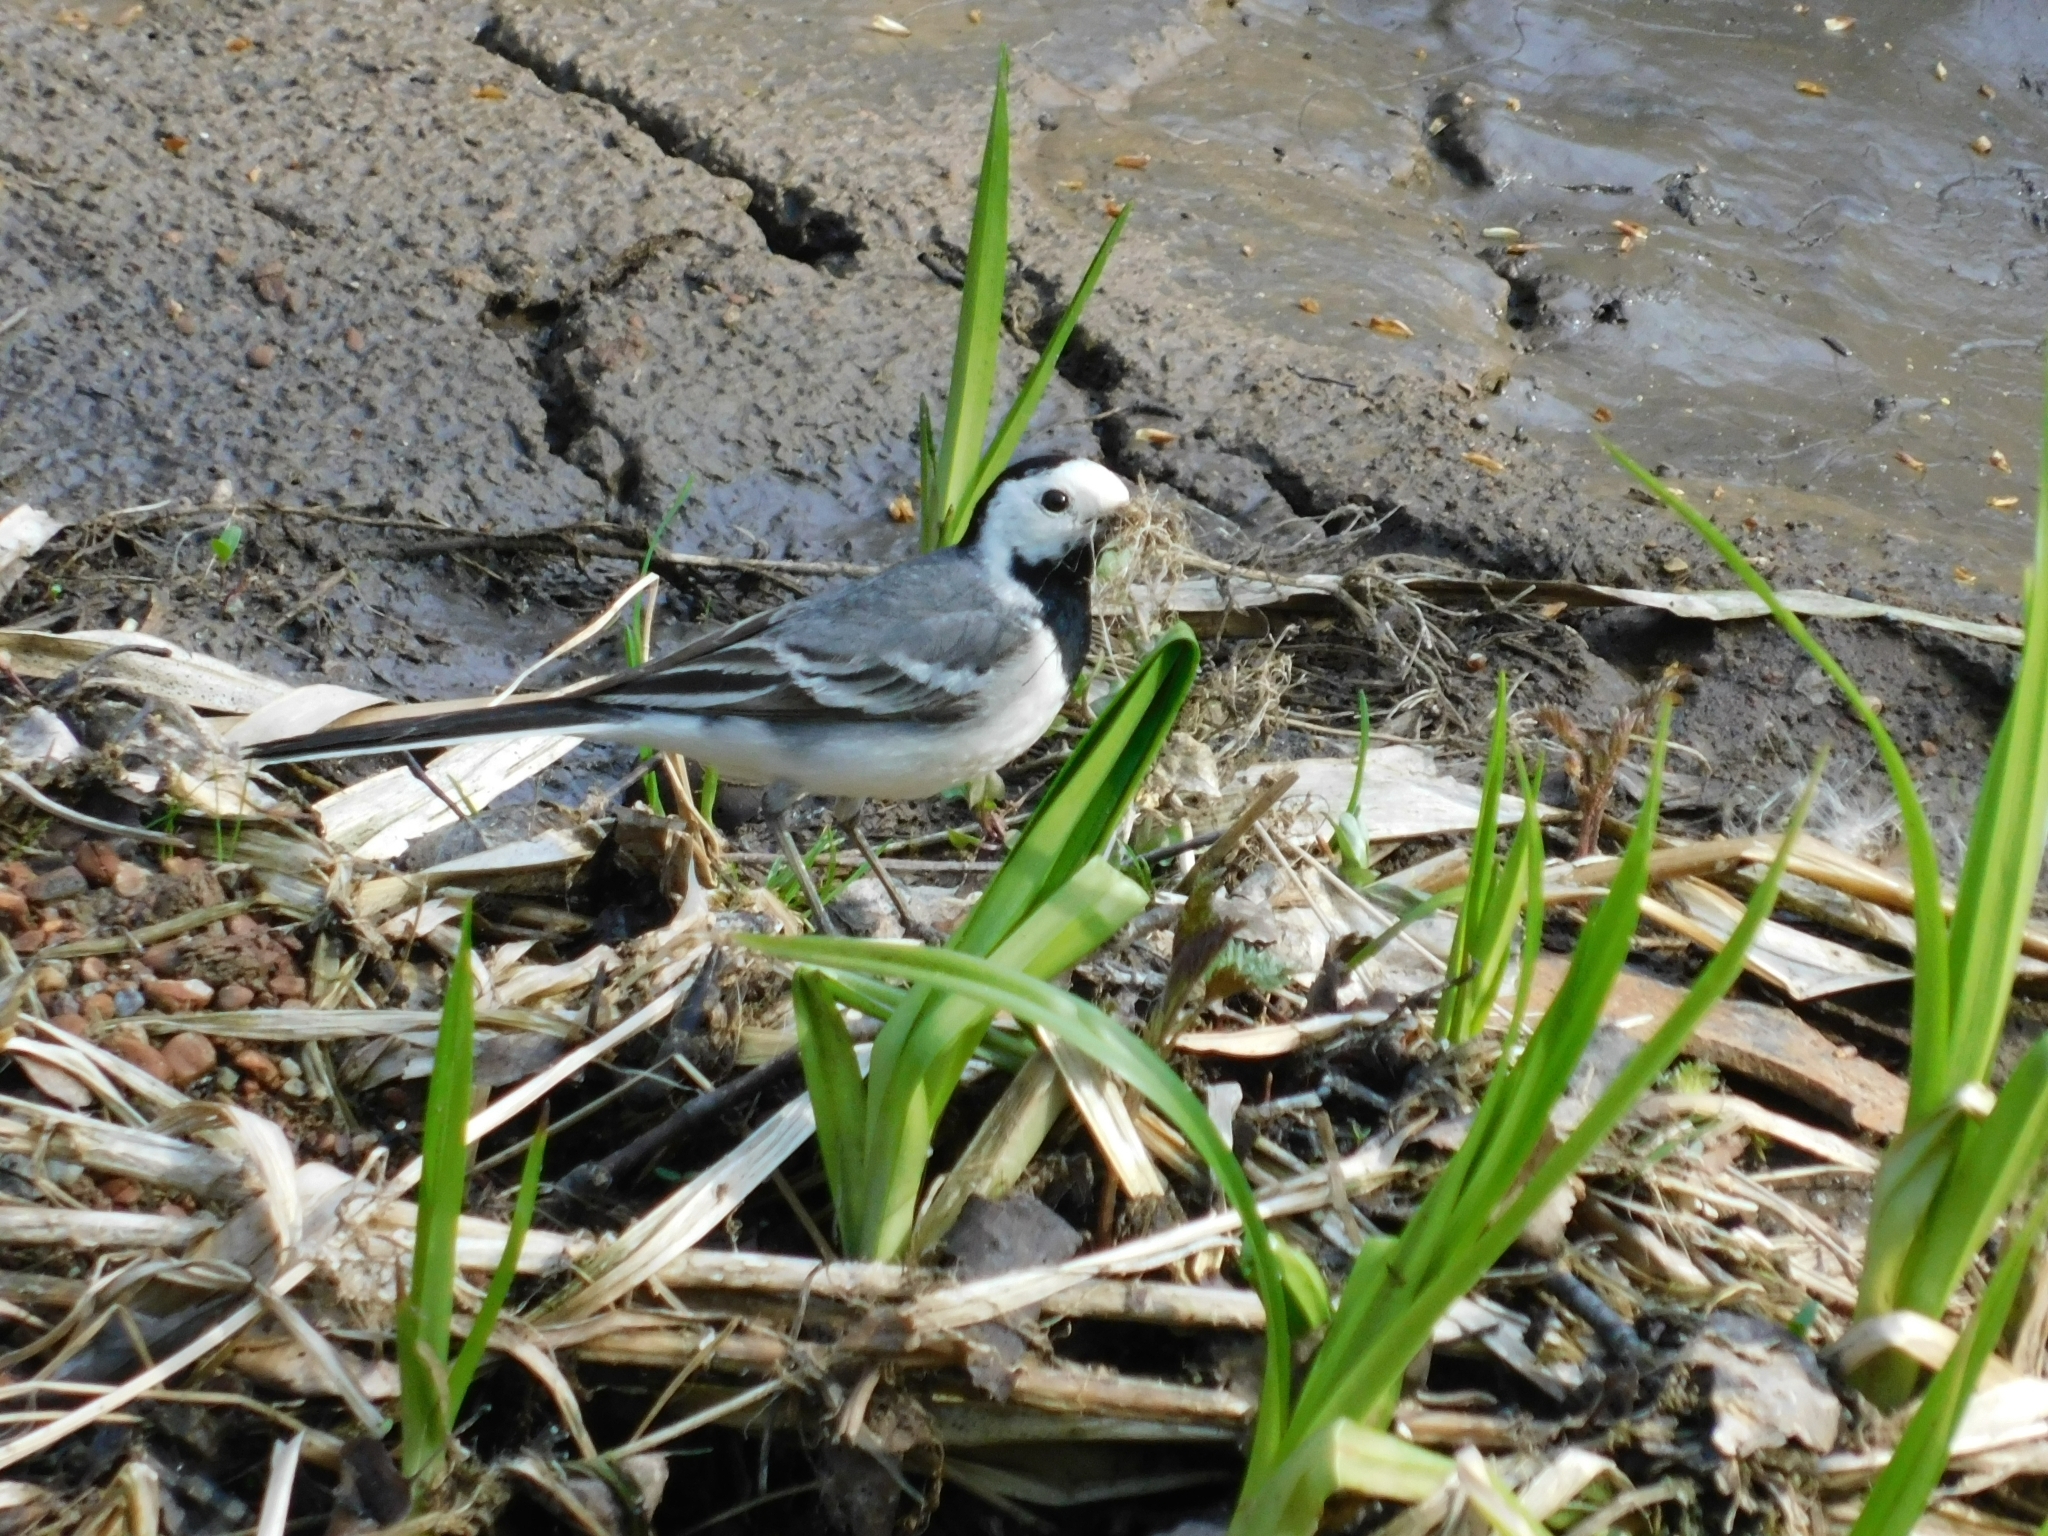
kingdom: Animalia
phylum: Chordata
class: Aves
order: Passeriformes
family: Motacillidae
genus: Motacilla
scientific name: Motacilla alba
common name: White wagtail
